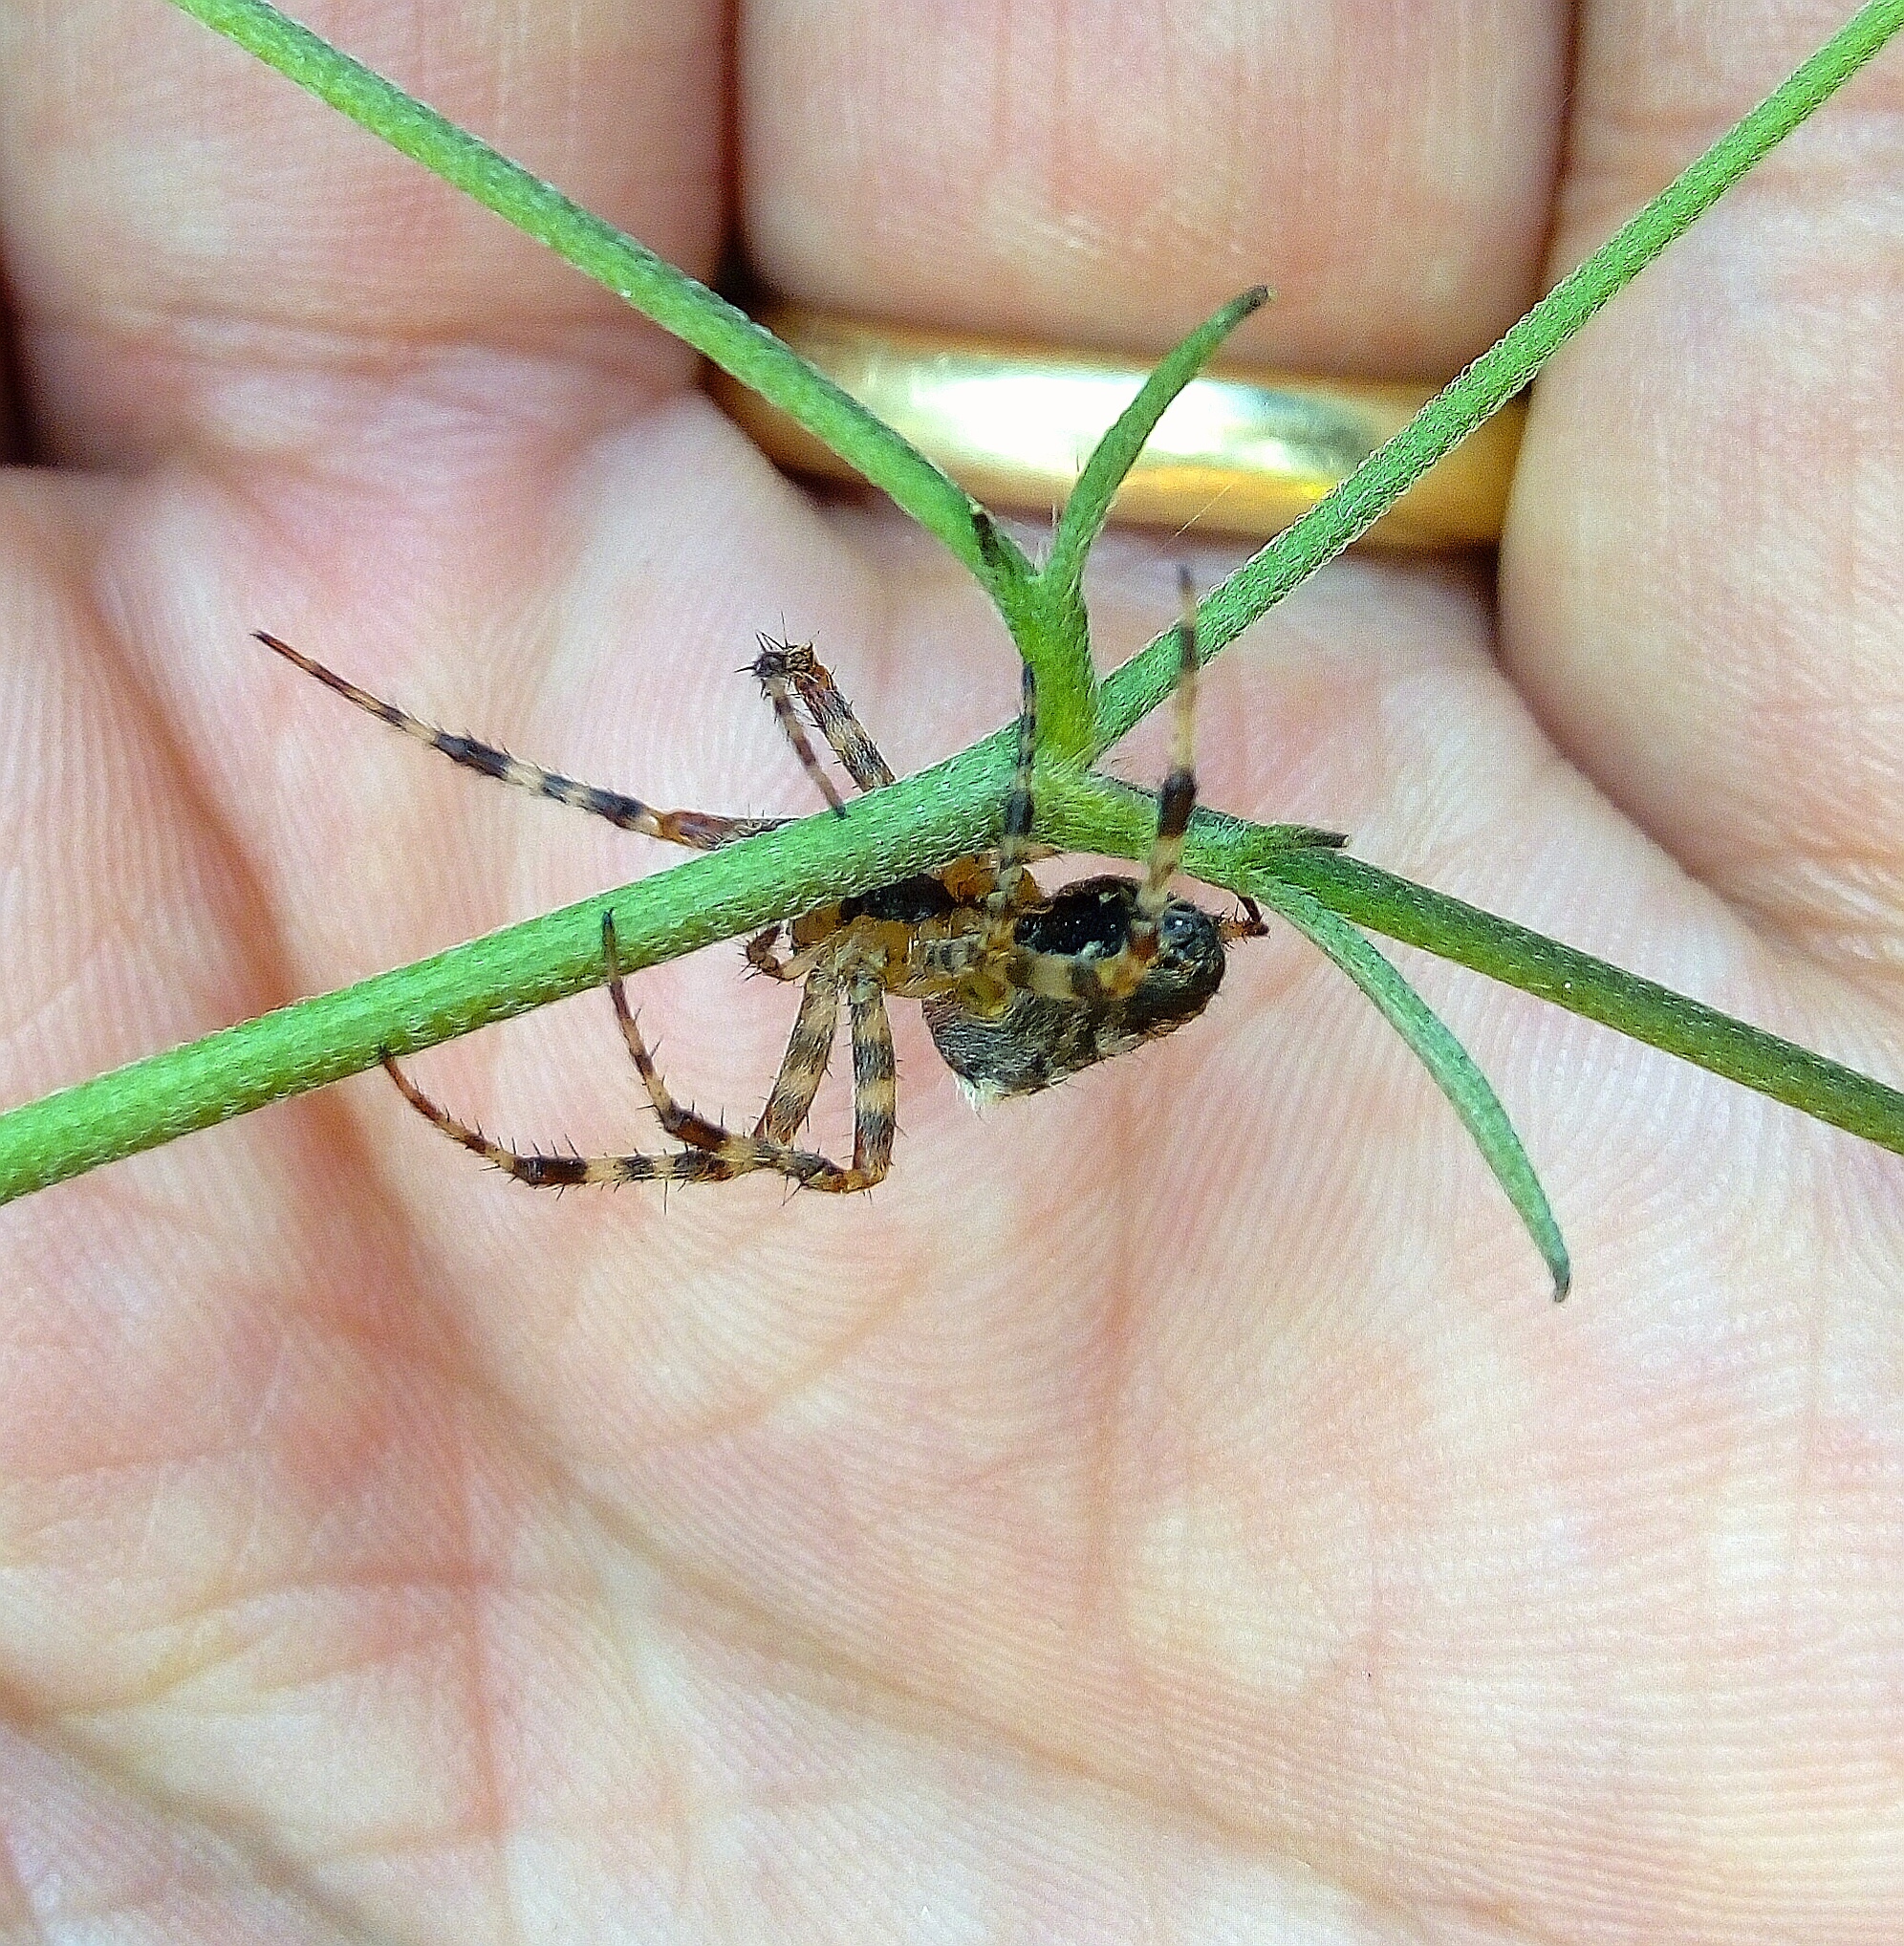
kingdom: Animalia
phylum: Arthropoda
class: Arachnida
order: Araneae
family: Araneidae
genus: Araneus
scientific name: Araneus diadematus
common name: Cross orbweaver
